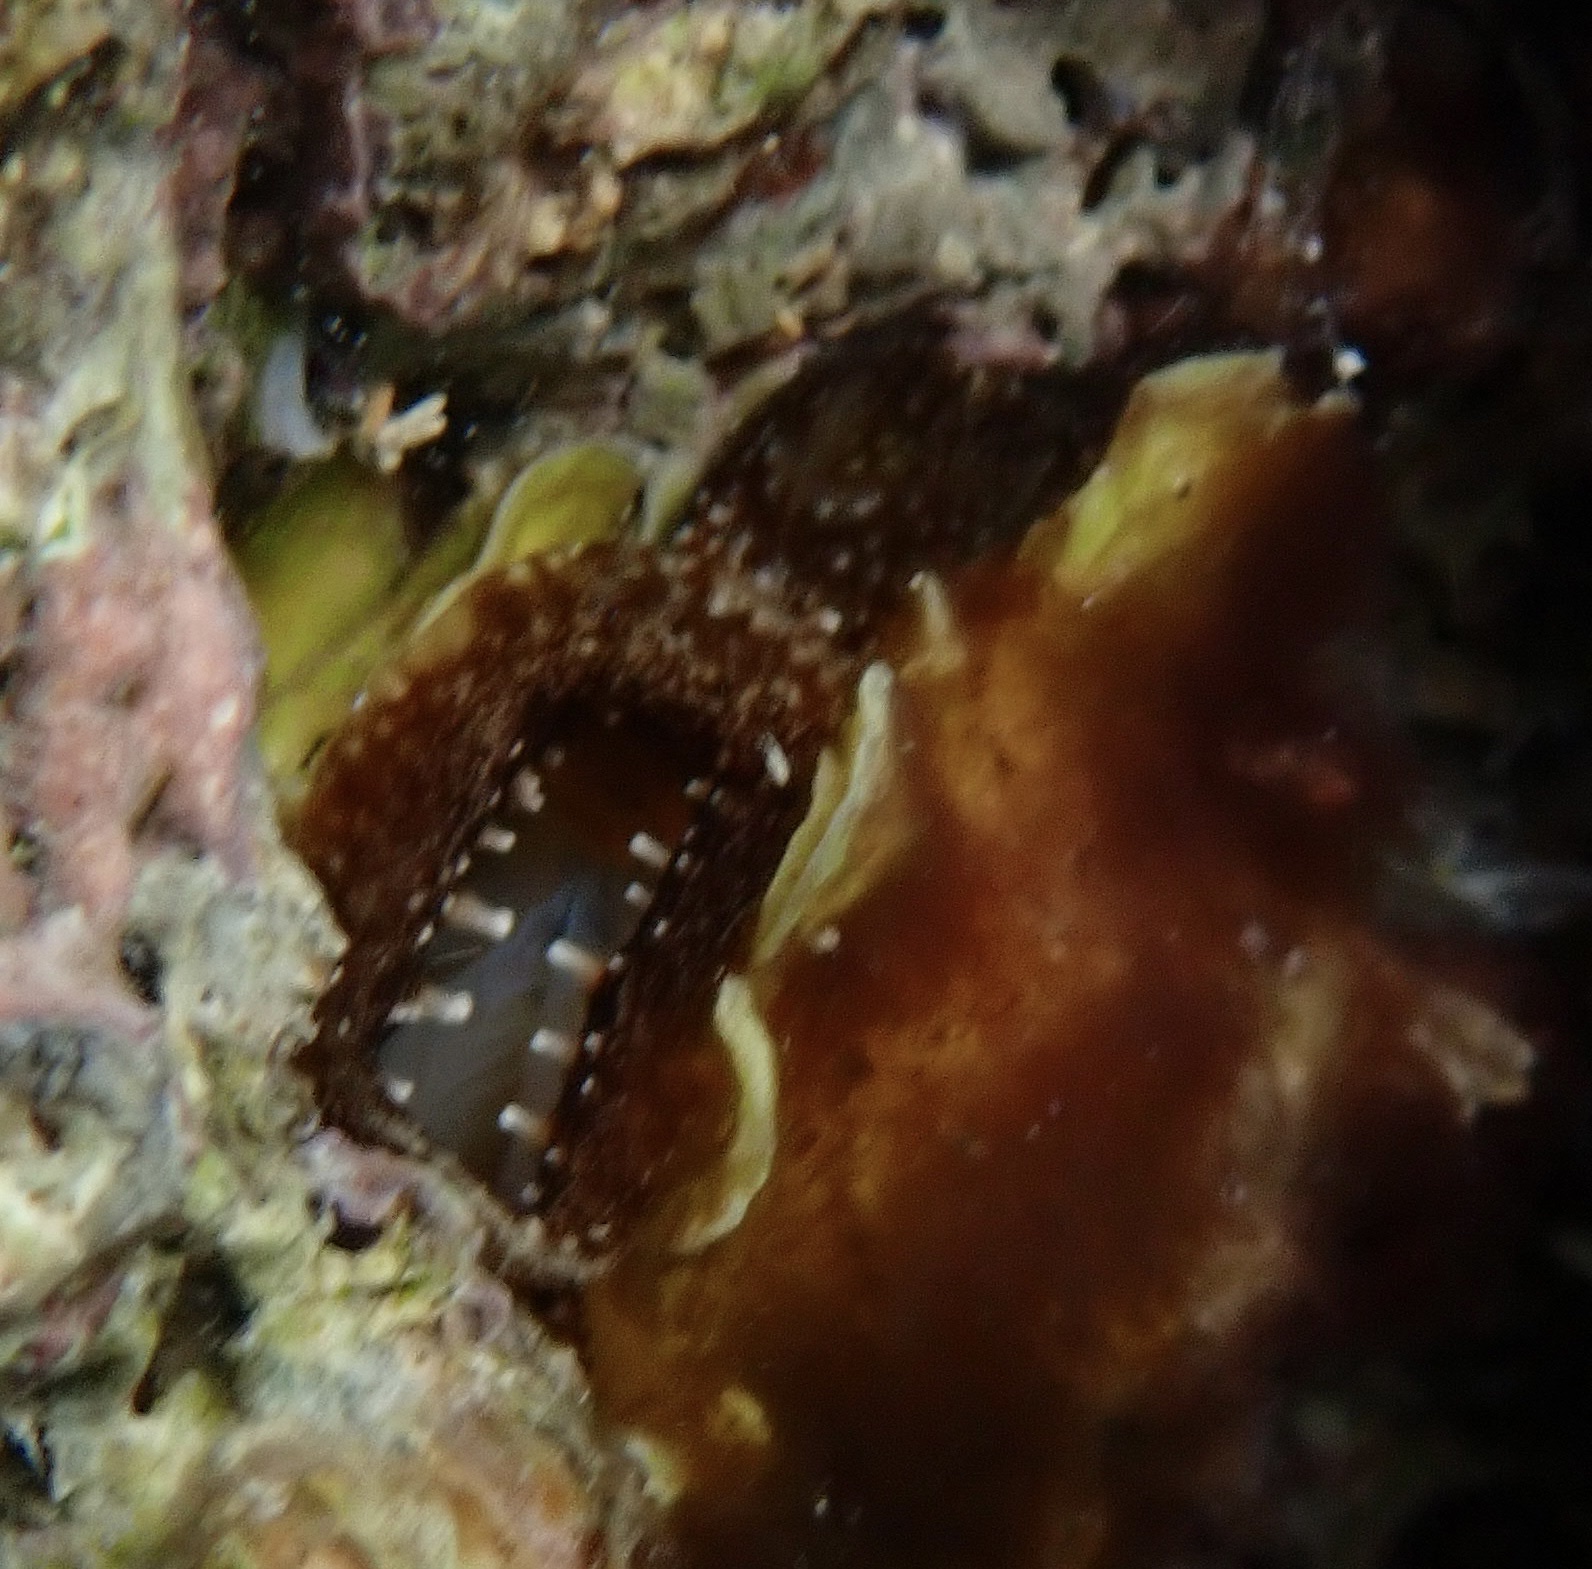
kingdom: Animalia
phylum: Mollusca
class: Bivalvia
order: Venerida
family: Chamidae
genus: Chama
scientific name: Chama macerophylla
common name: Leafy jewelbox
